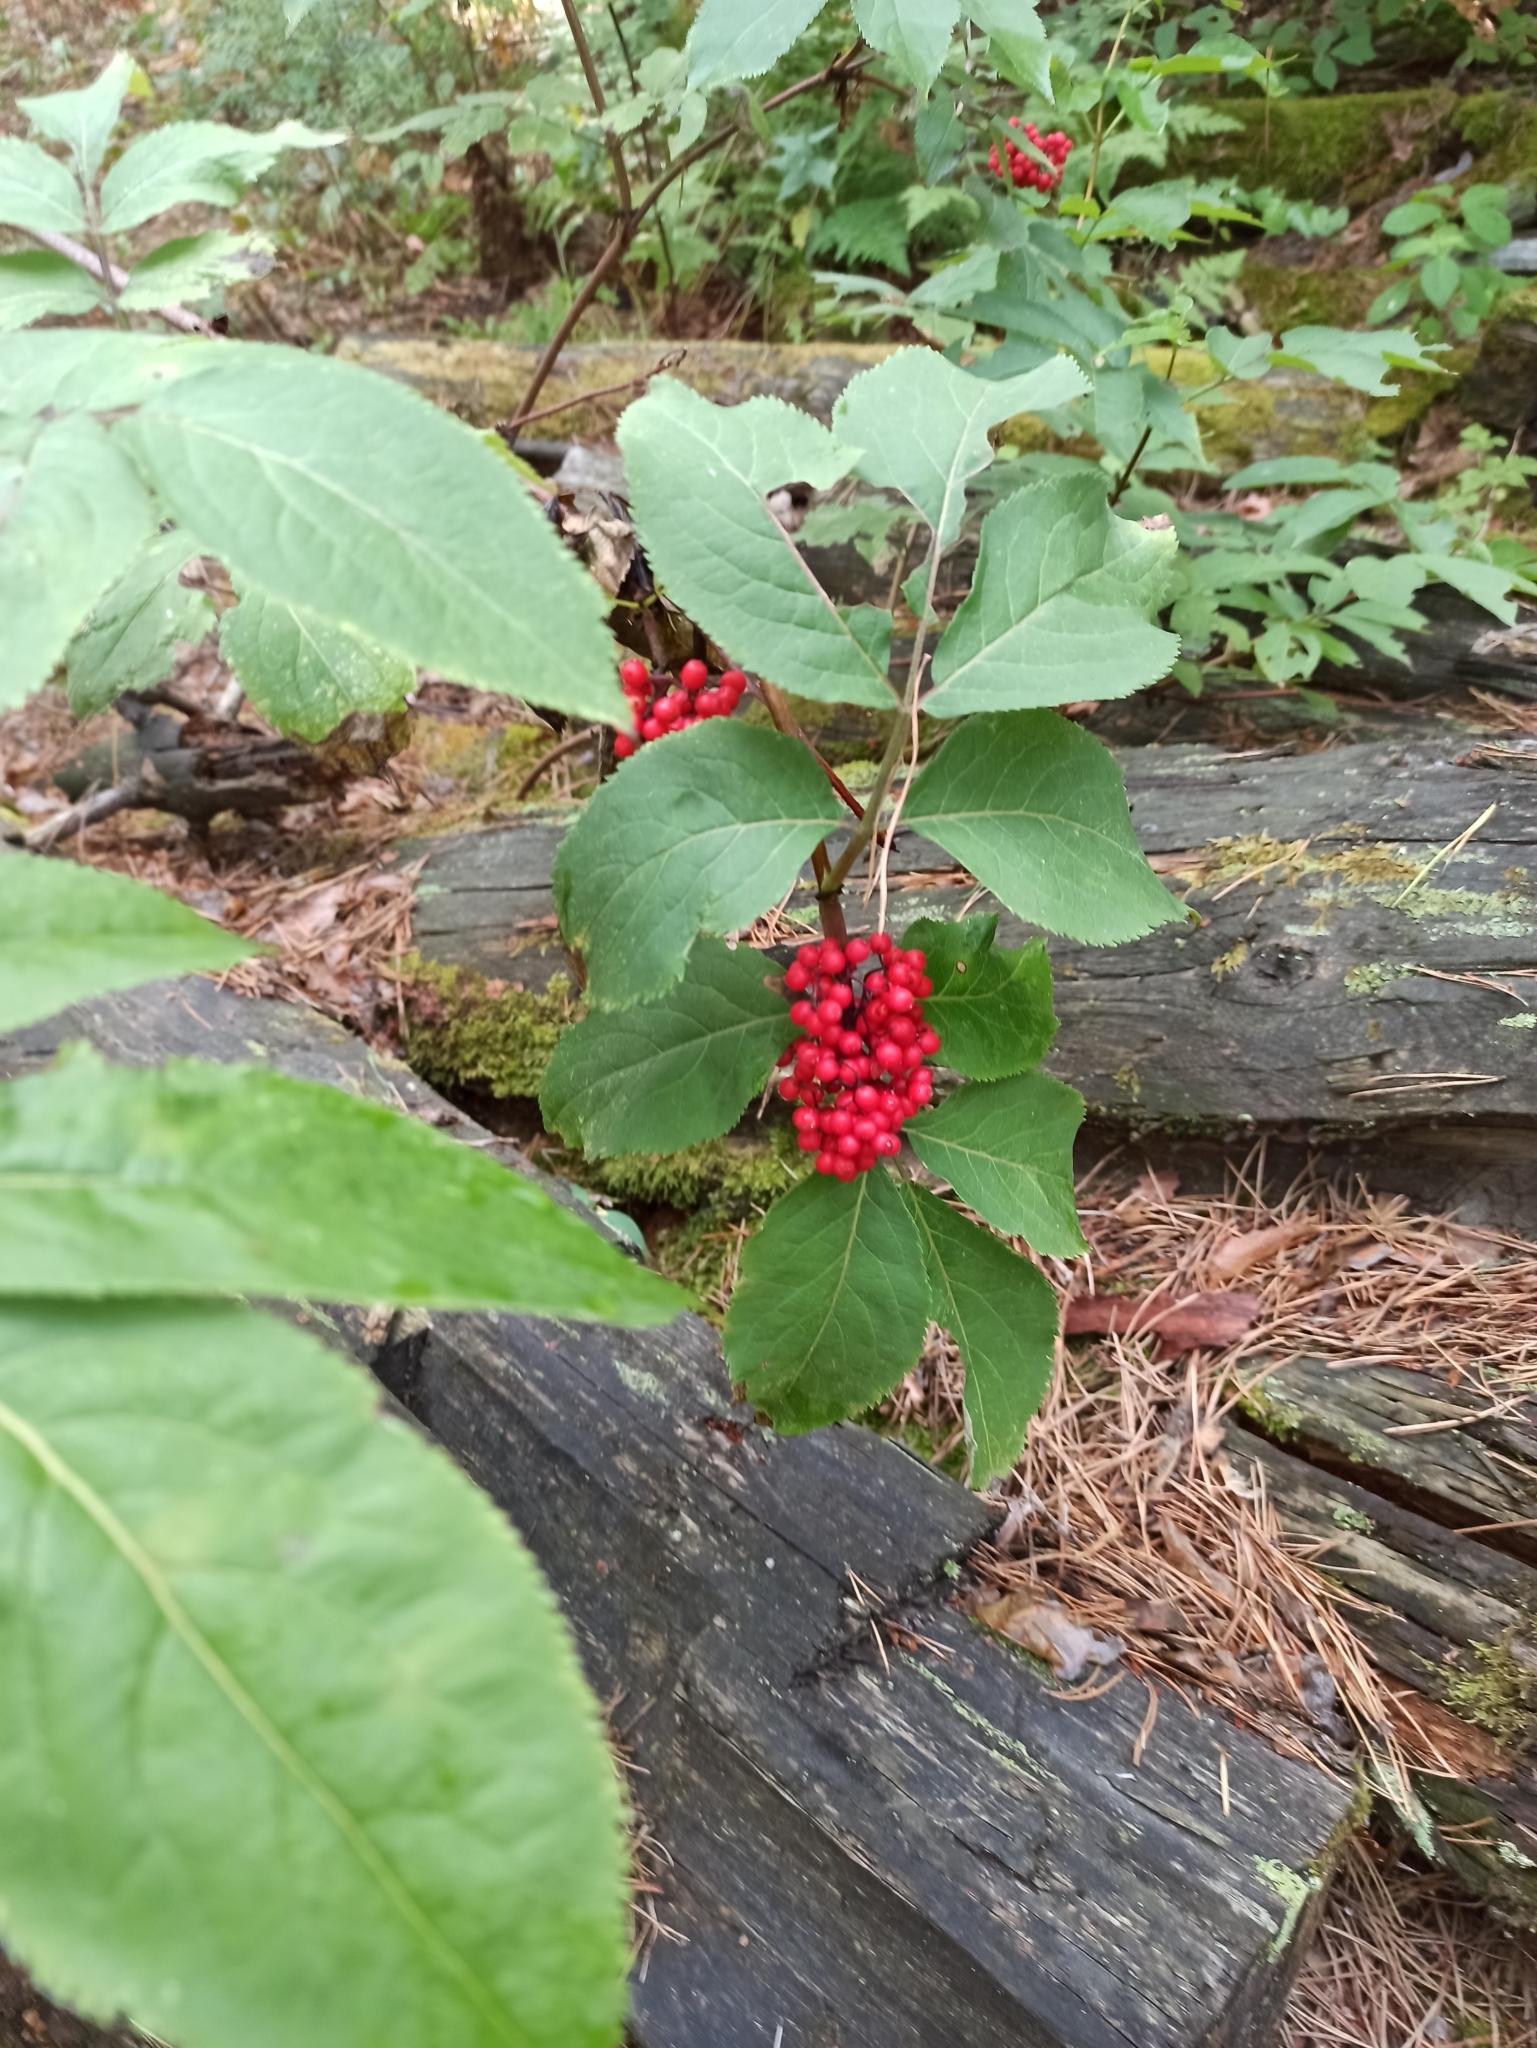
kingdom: Plantae
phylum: Tracheophyta
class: Magnoliopsida
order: Dipsacales
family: Viburnaceae
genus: Sambucus
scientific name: Sambucus racemosa
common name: Red-berried elder
